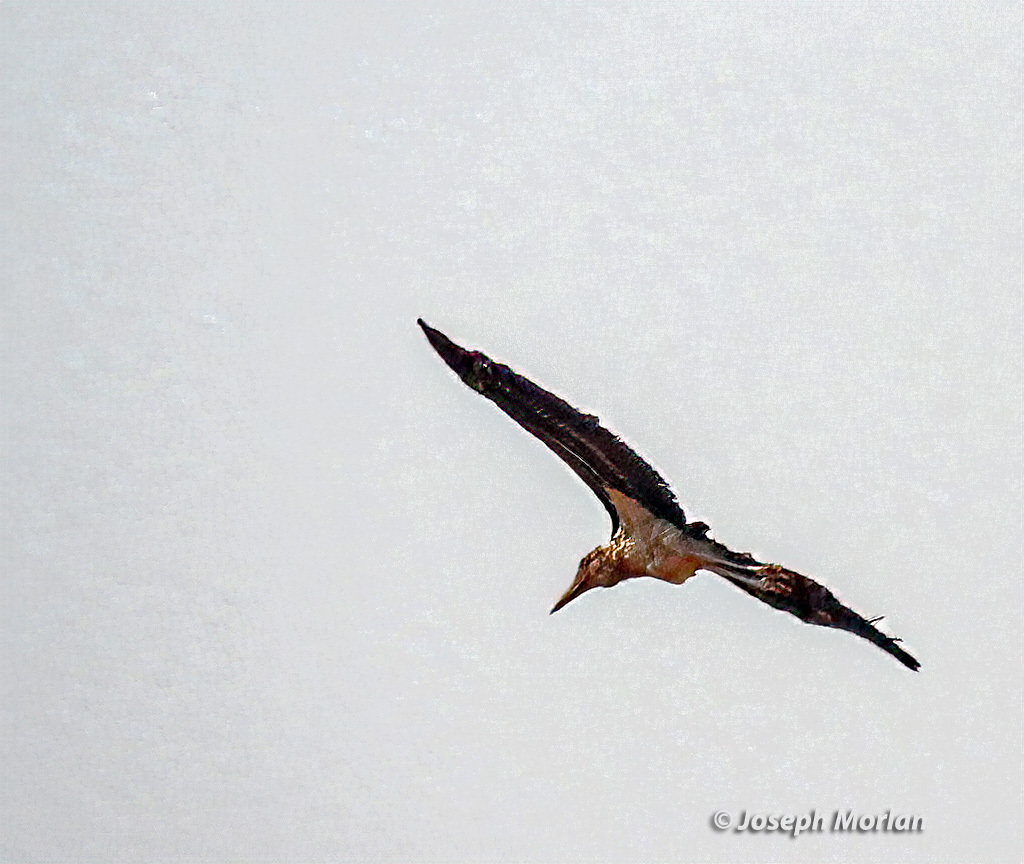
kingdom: Animalia
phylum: Chordata
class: Aves
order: Ciconiiformes
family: Ciconiidae
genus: Leptoptilos
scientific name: Leptoptilos crumenifer
